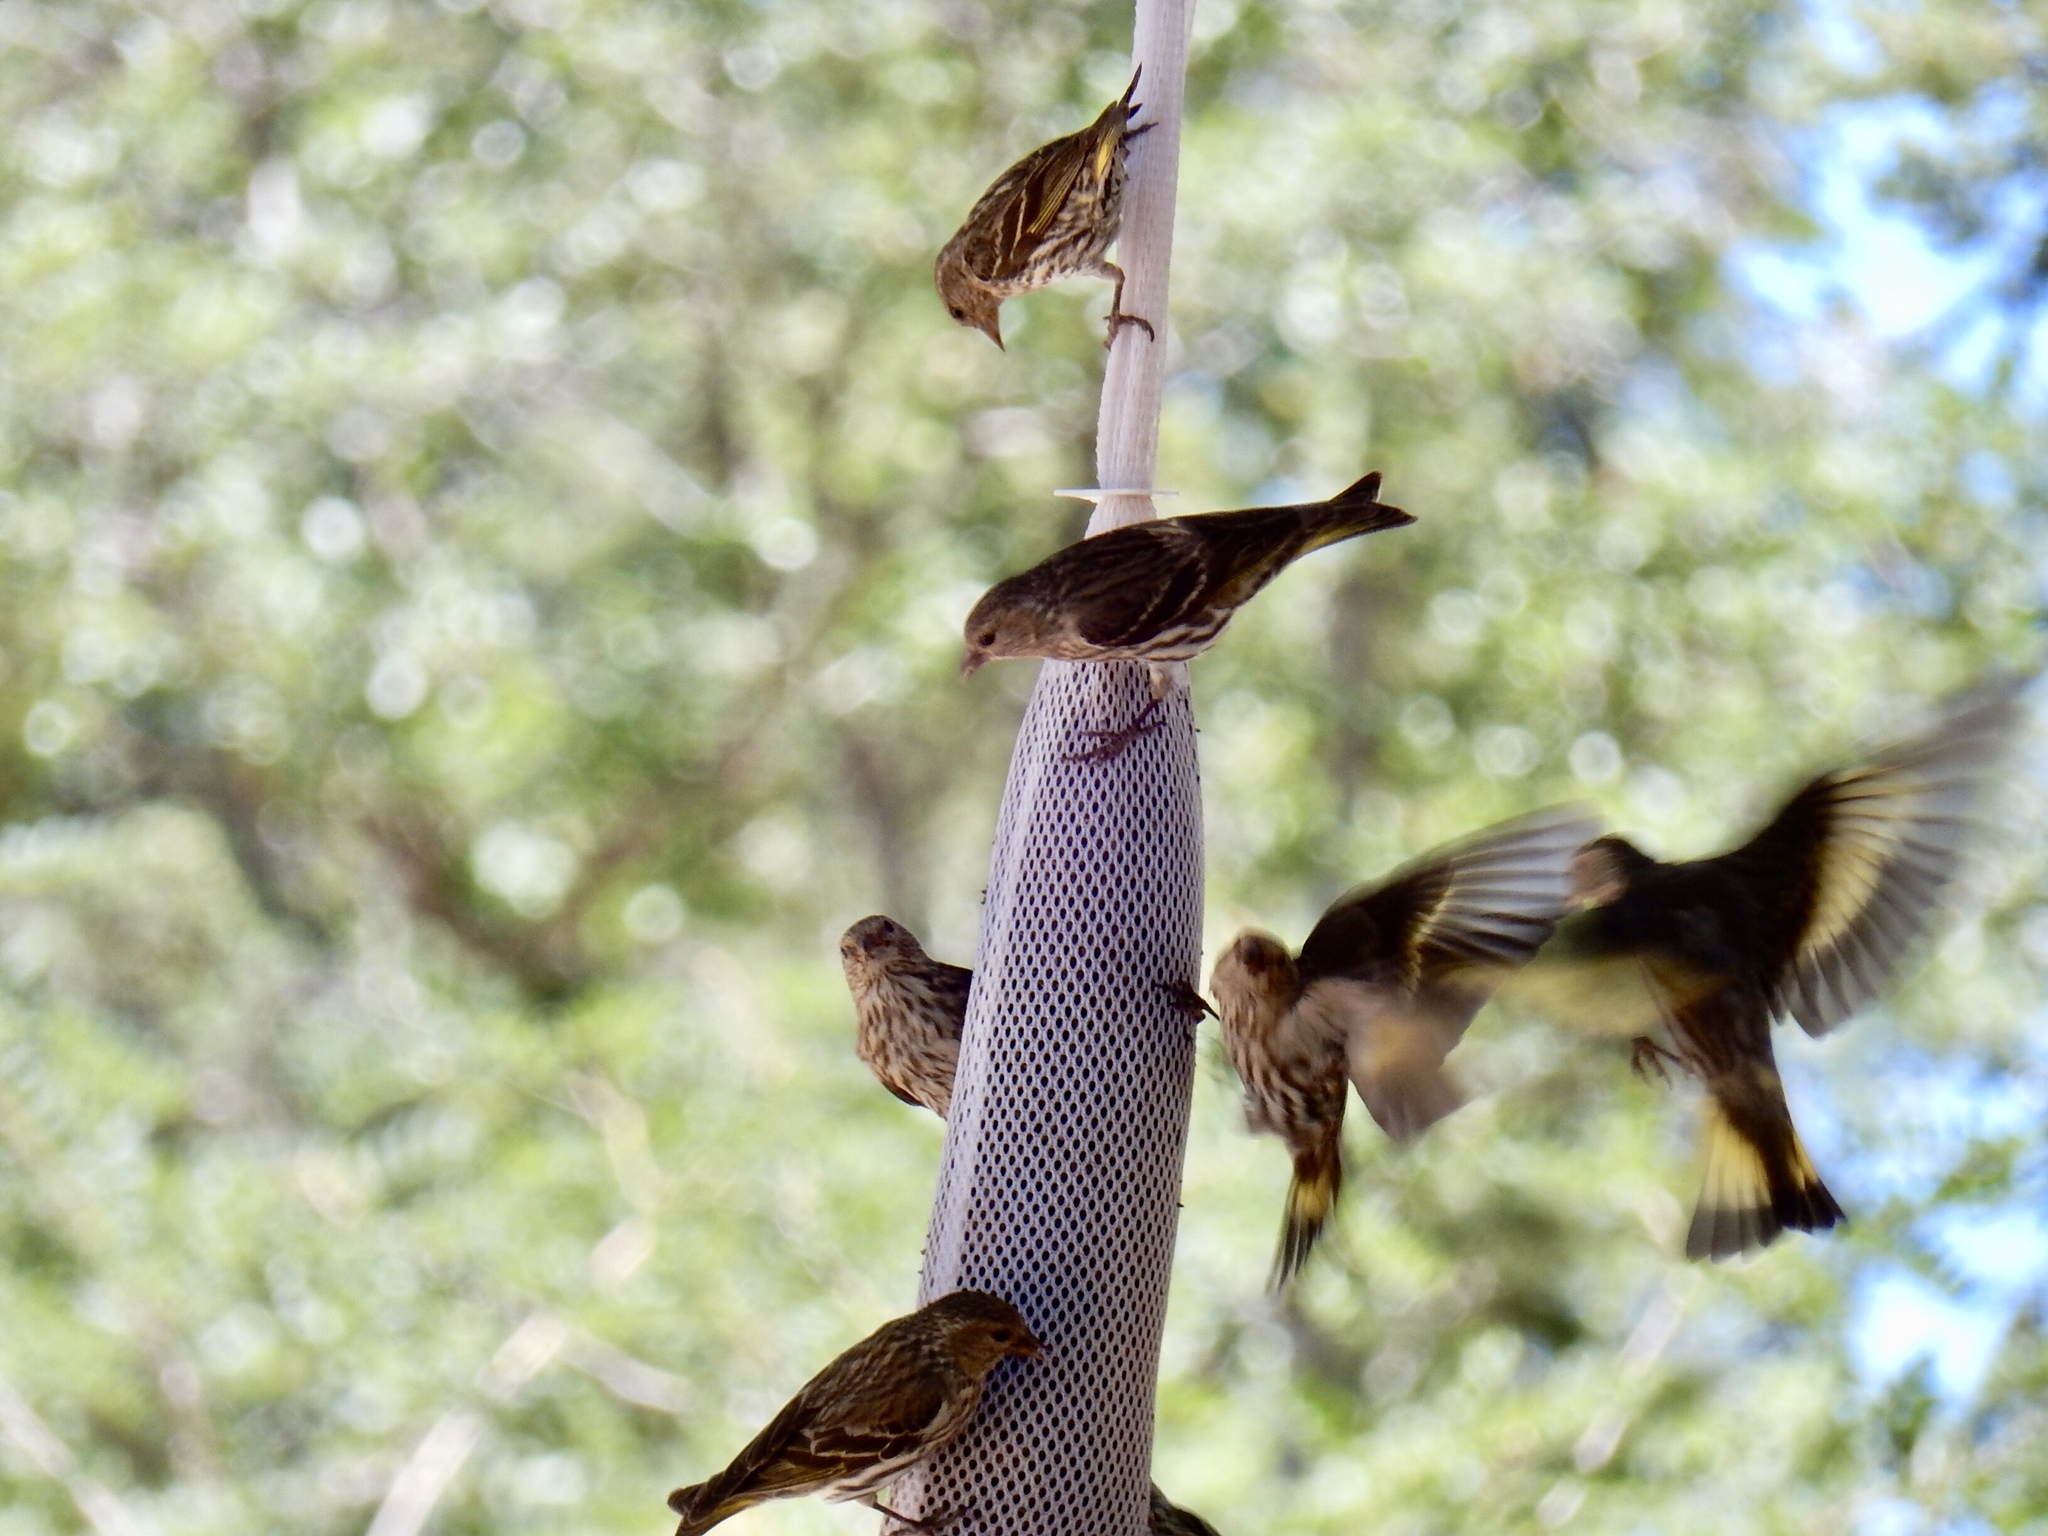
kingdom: Animalia
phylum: Chordata
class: Aves
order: Passeriformes
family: Fringillidae
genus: Spinus
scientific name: Spinus pinus
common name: Pine siskin
